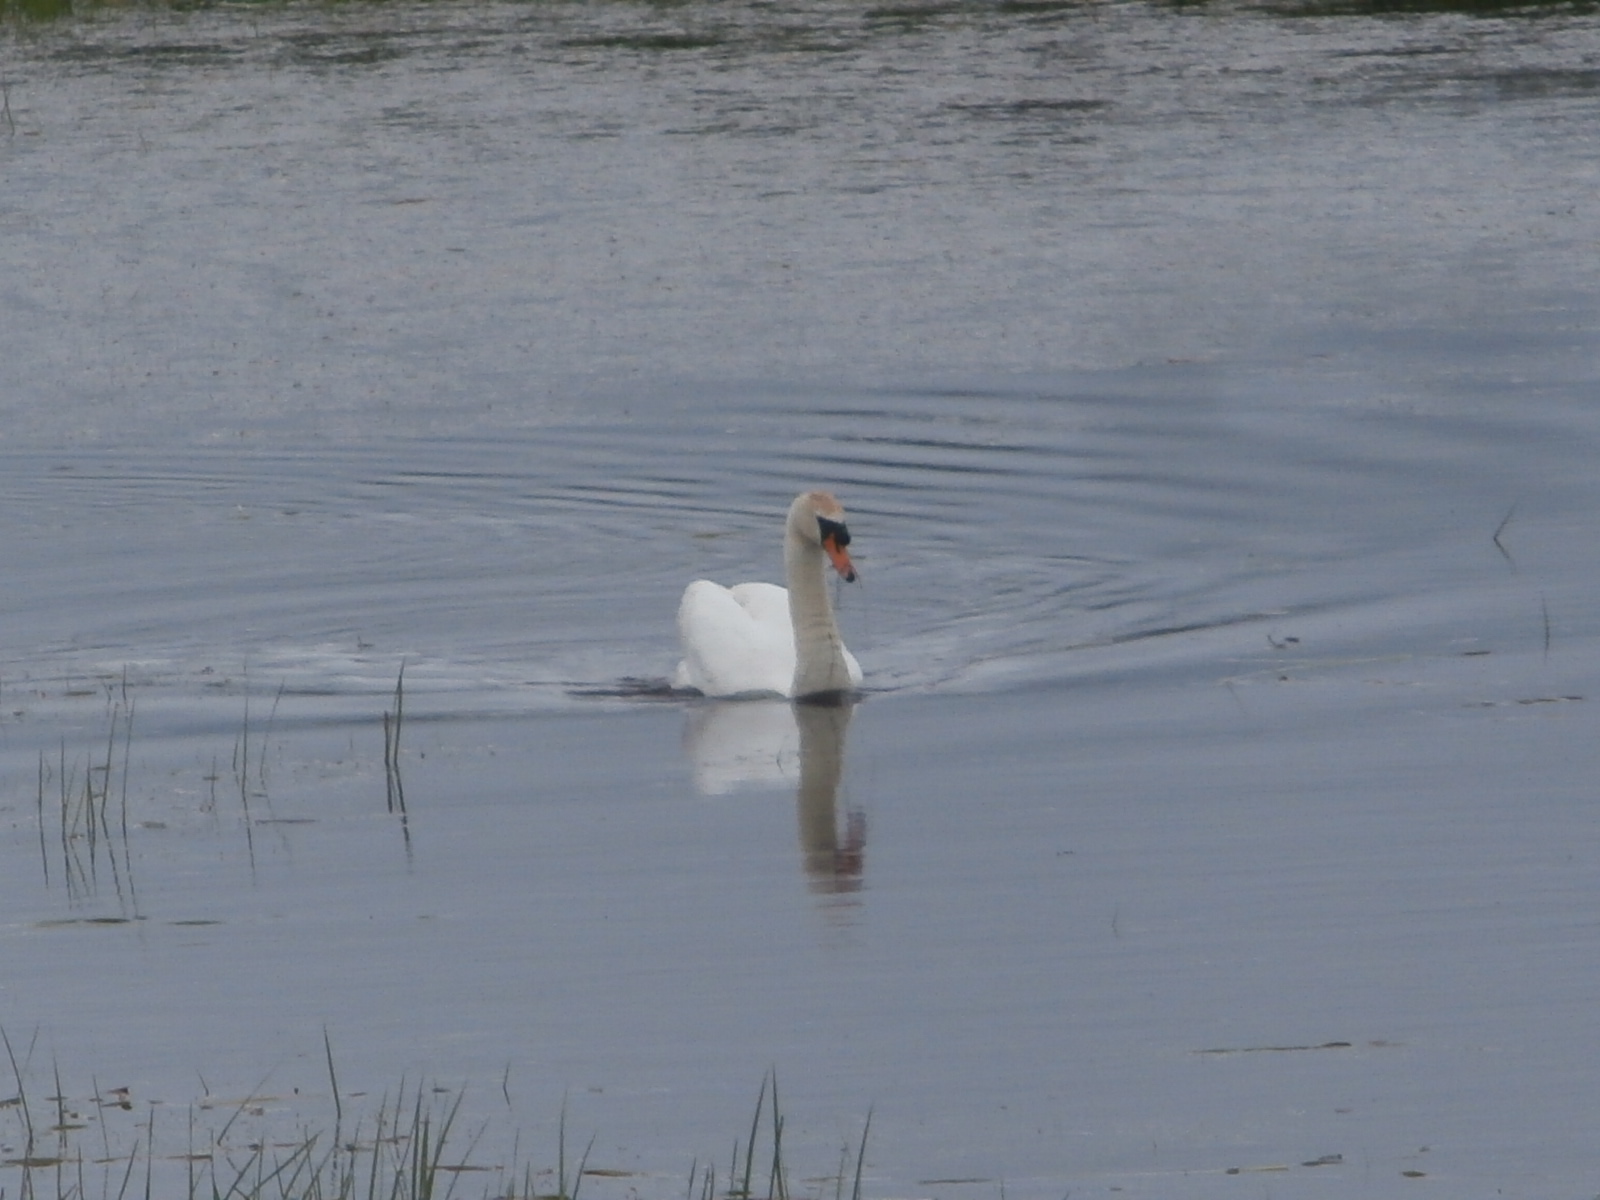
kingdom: Animalia
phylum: Chordata
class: Aves
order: Anseriformes
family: Anatidae
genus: Cygnus
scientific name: Cygnus olor
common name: Mute swan
